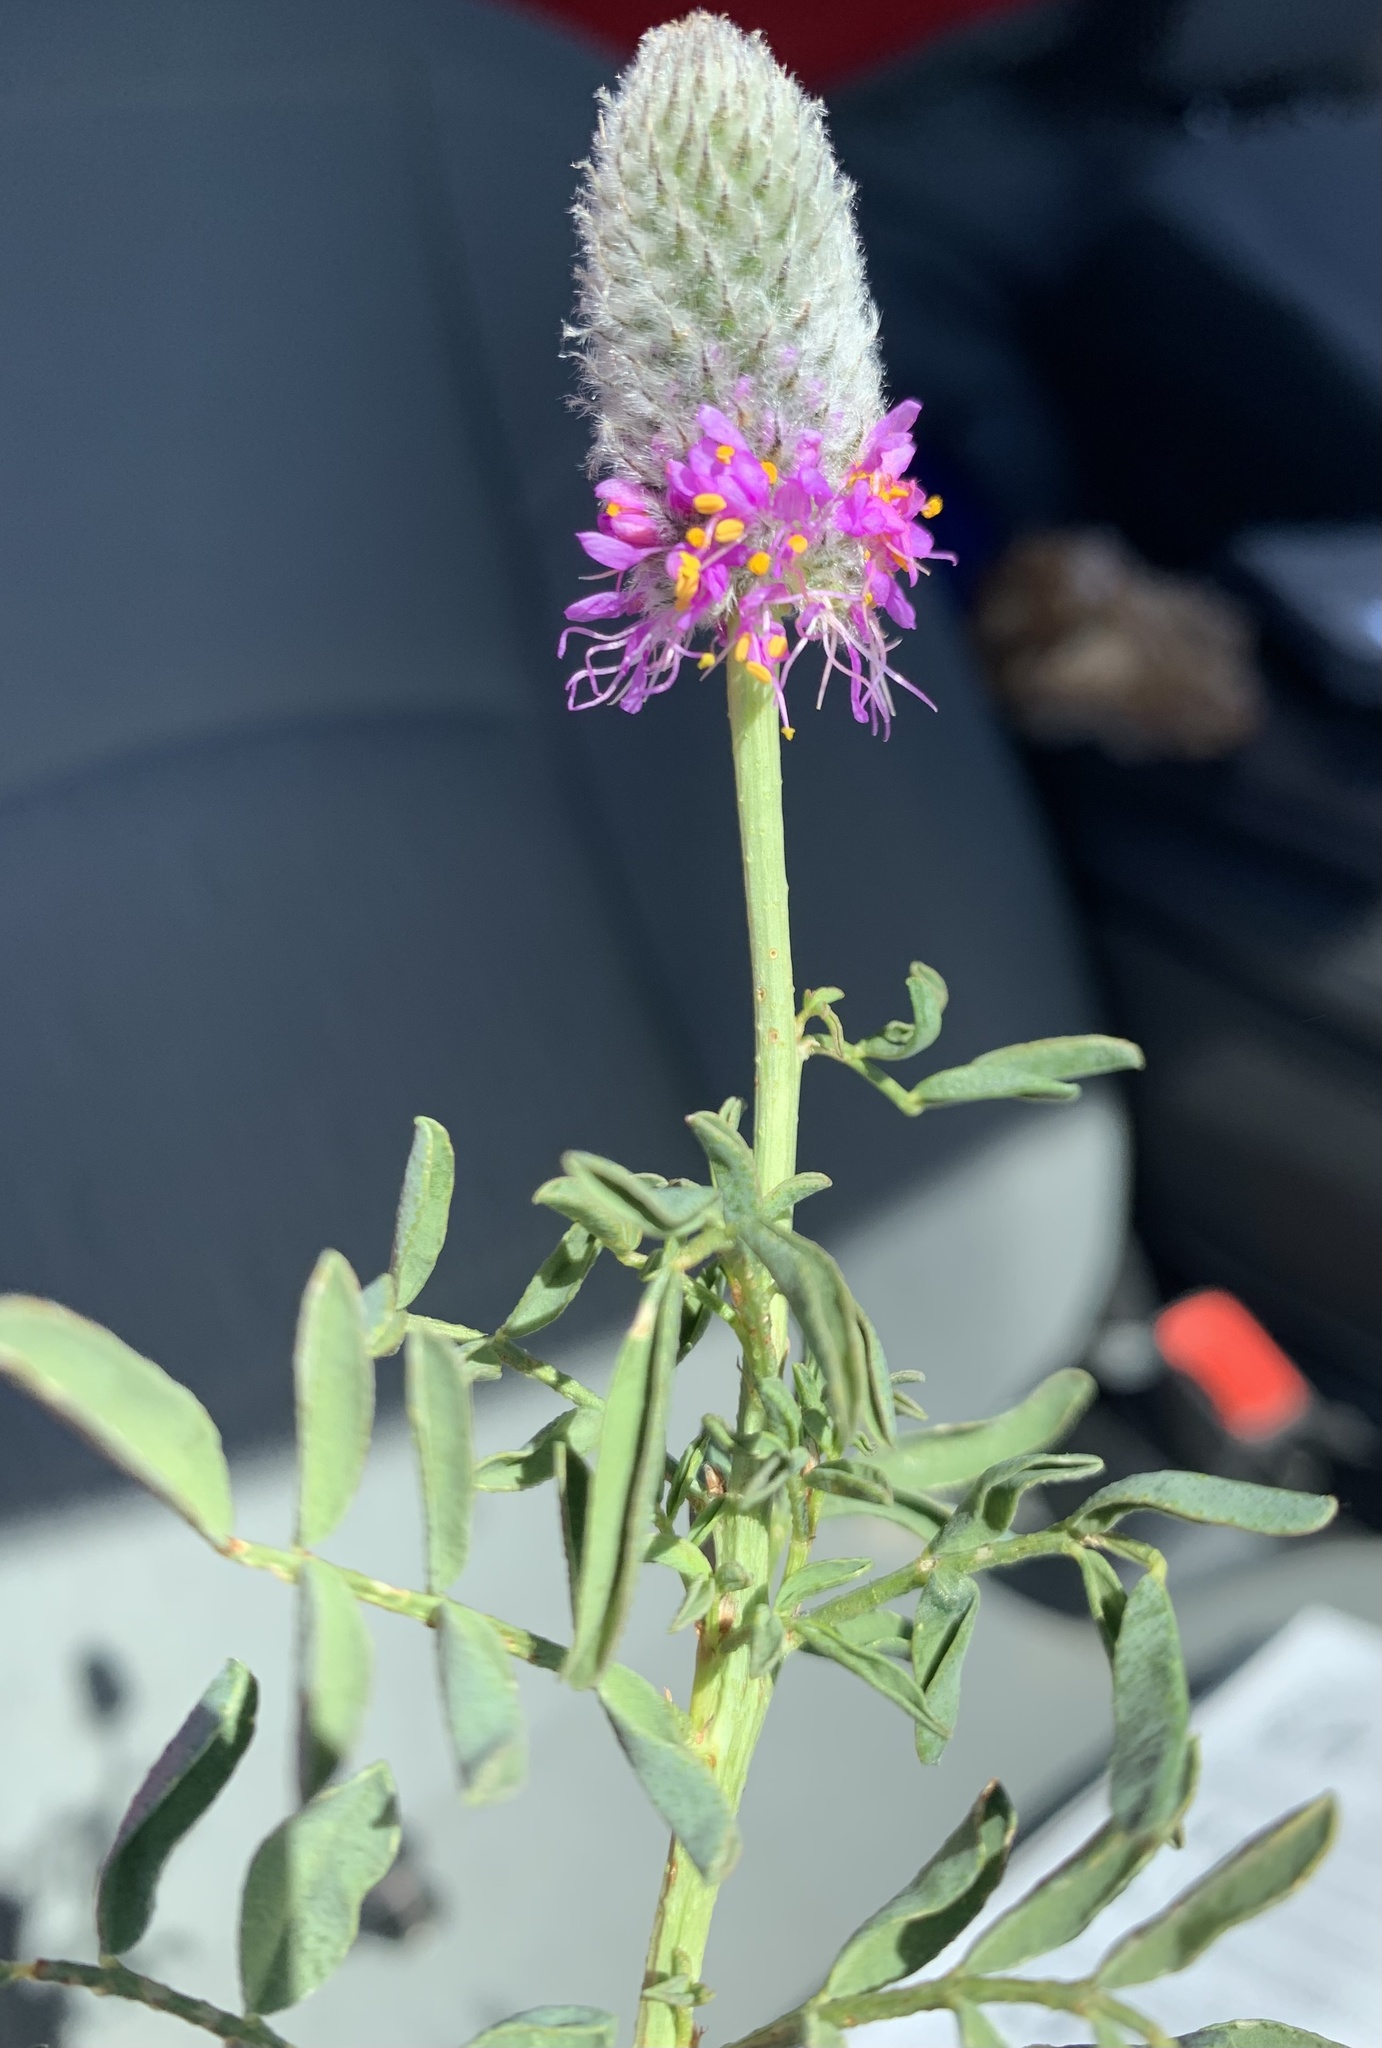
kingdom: Plantae
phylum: Tracheophyta
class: Magnoliopsida
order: Fabales
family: Fabaceae
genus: Dalea
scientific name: Dalea ornata
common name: Blue mountain prairie-clover
